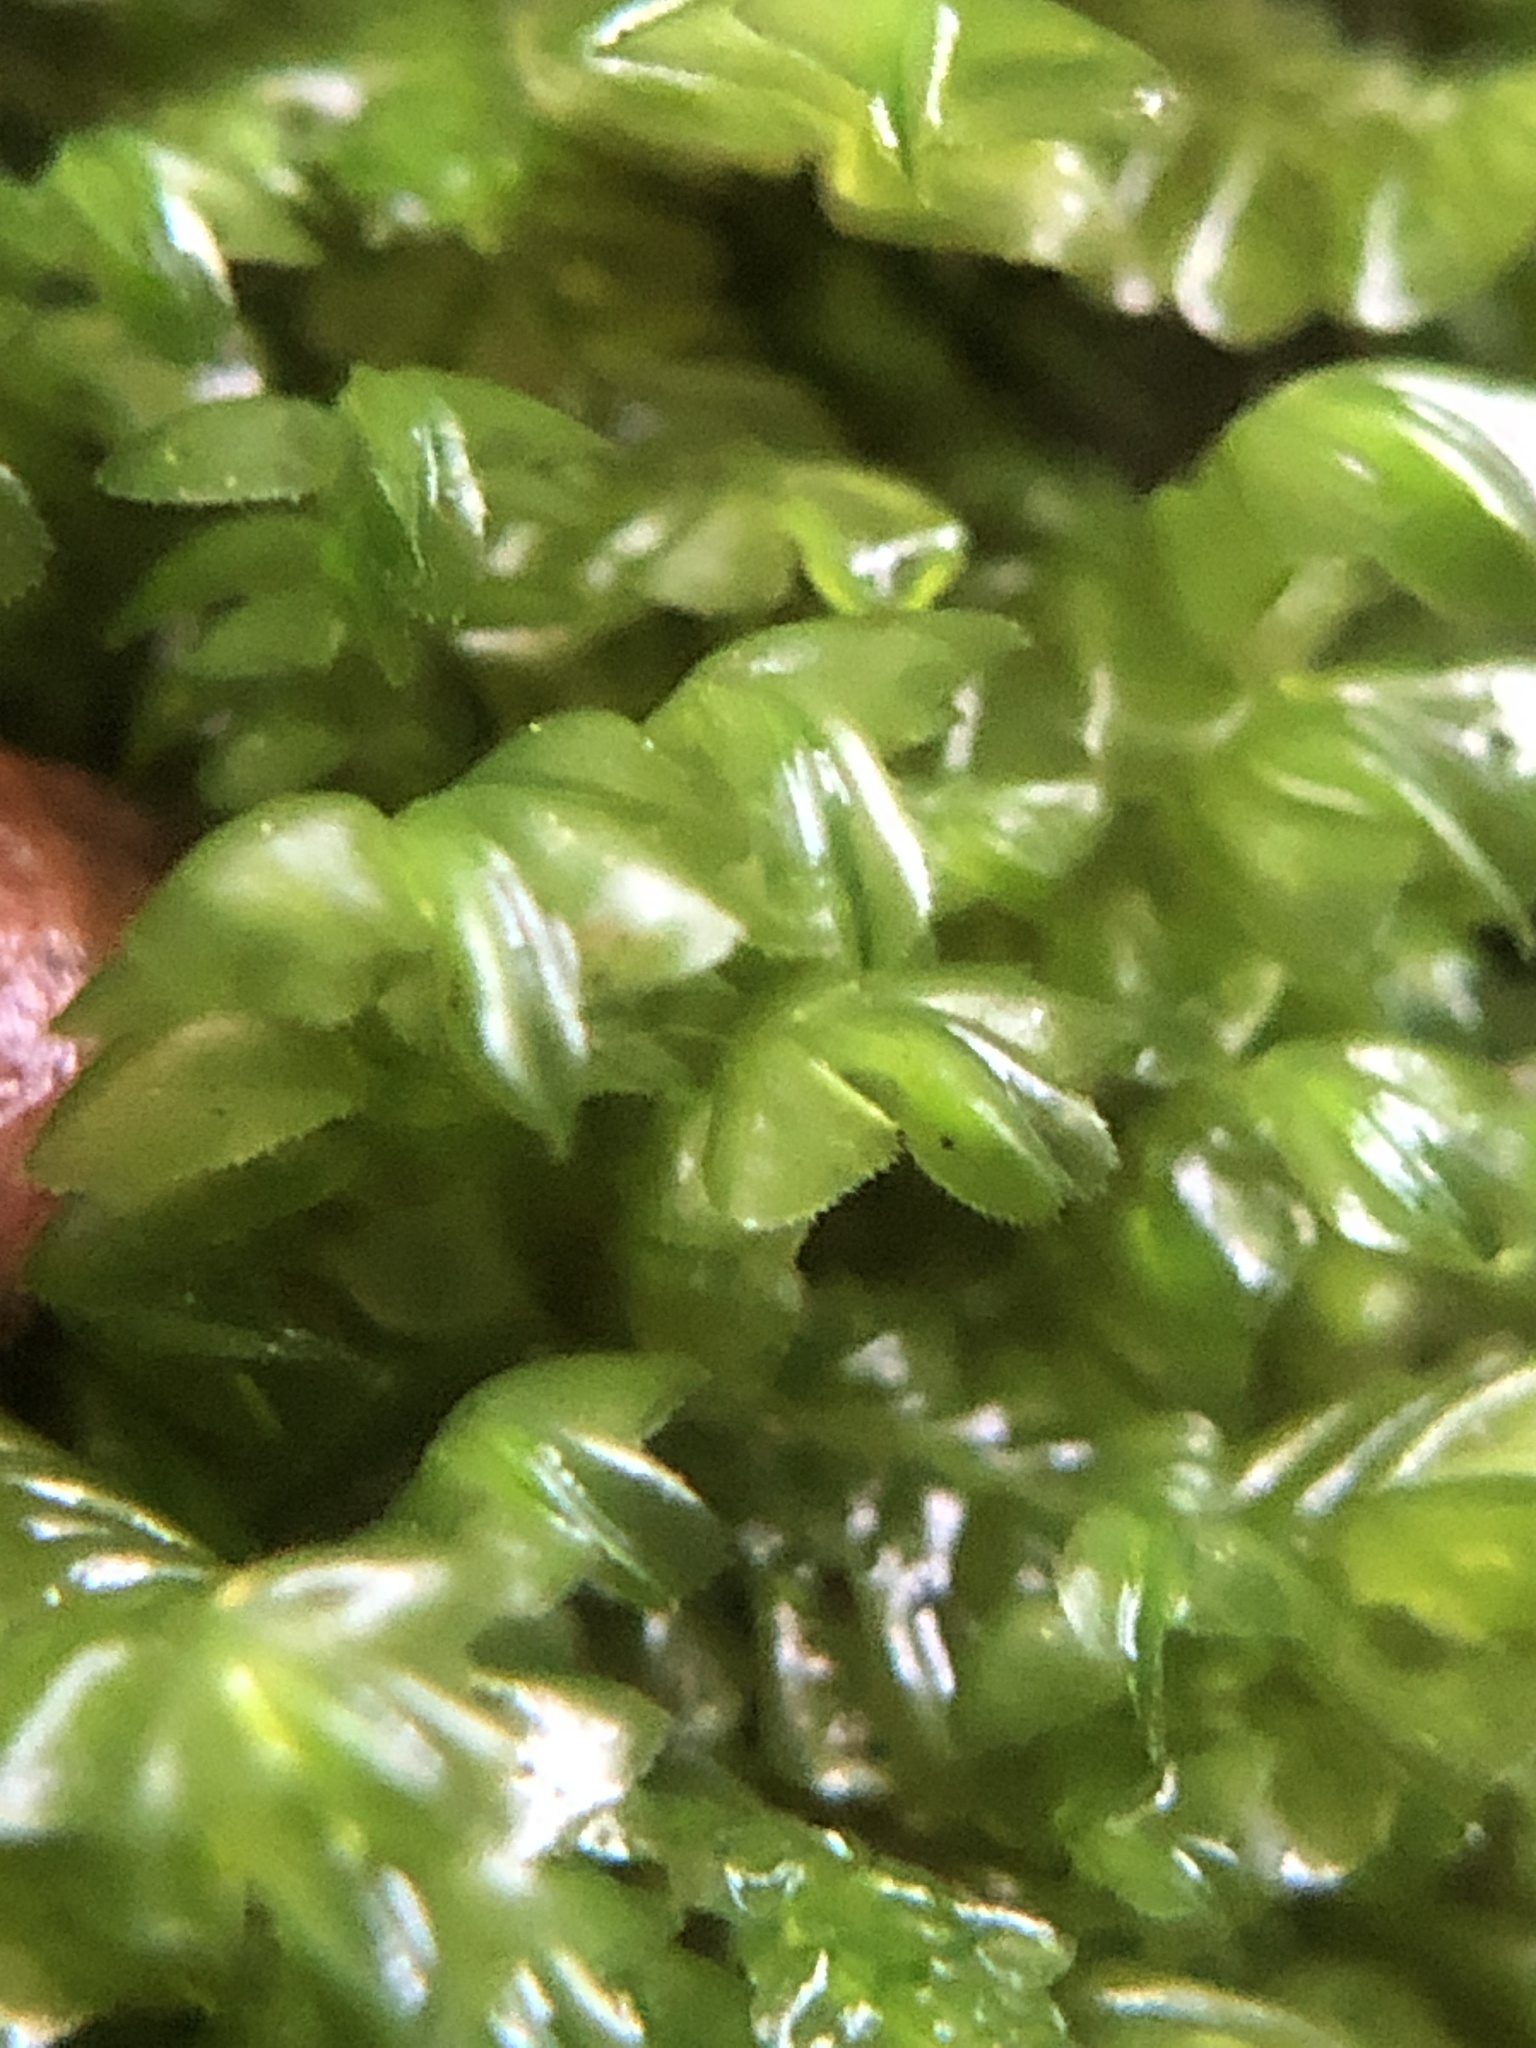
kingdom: Plantae
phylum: Marchantiophyta
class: Jungermanniopsida
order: Jungermanniales
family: Plagiochilaceae
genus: Plagiochila
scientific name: Plagiochila porelloides
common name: Lesser featherwort
